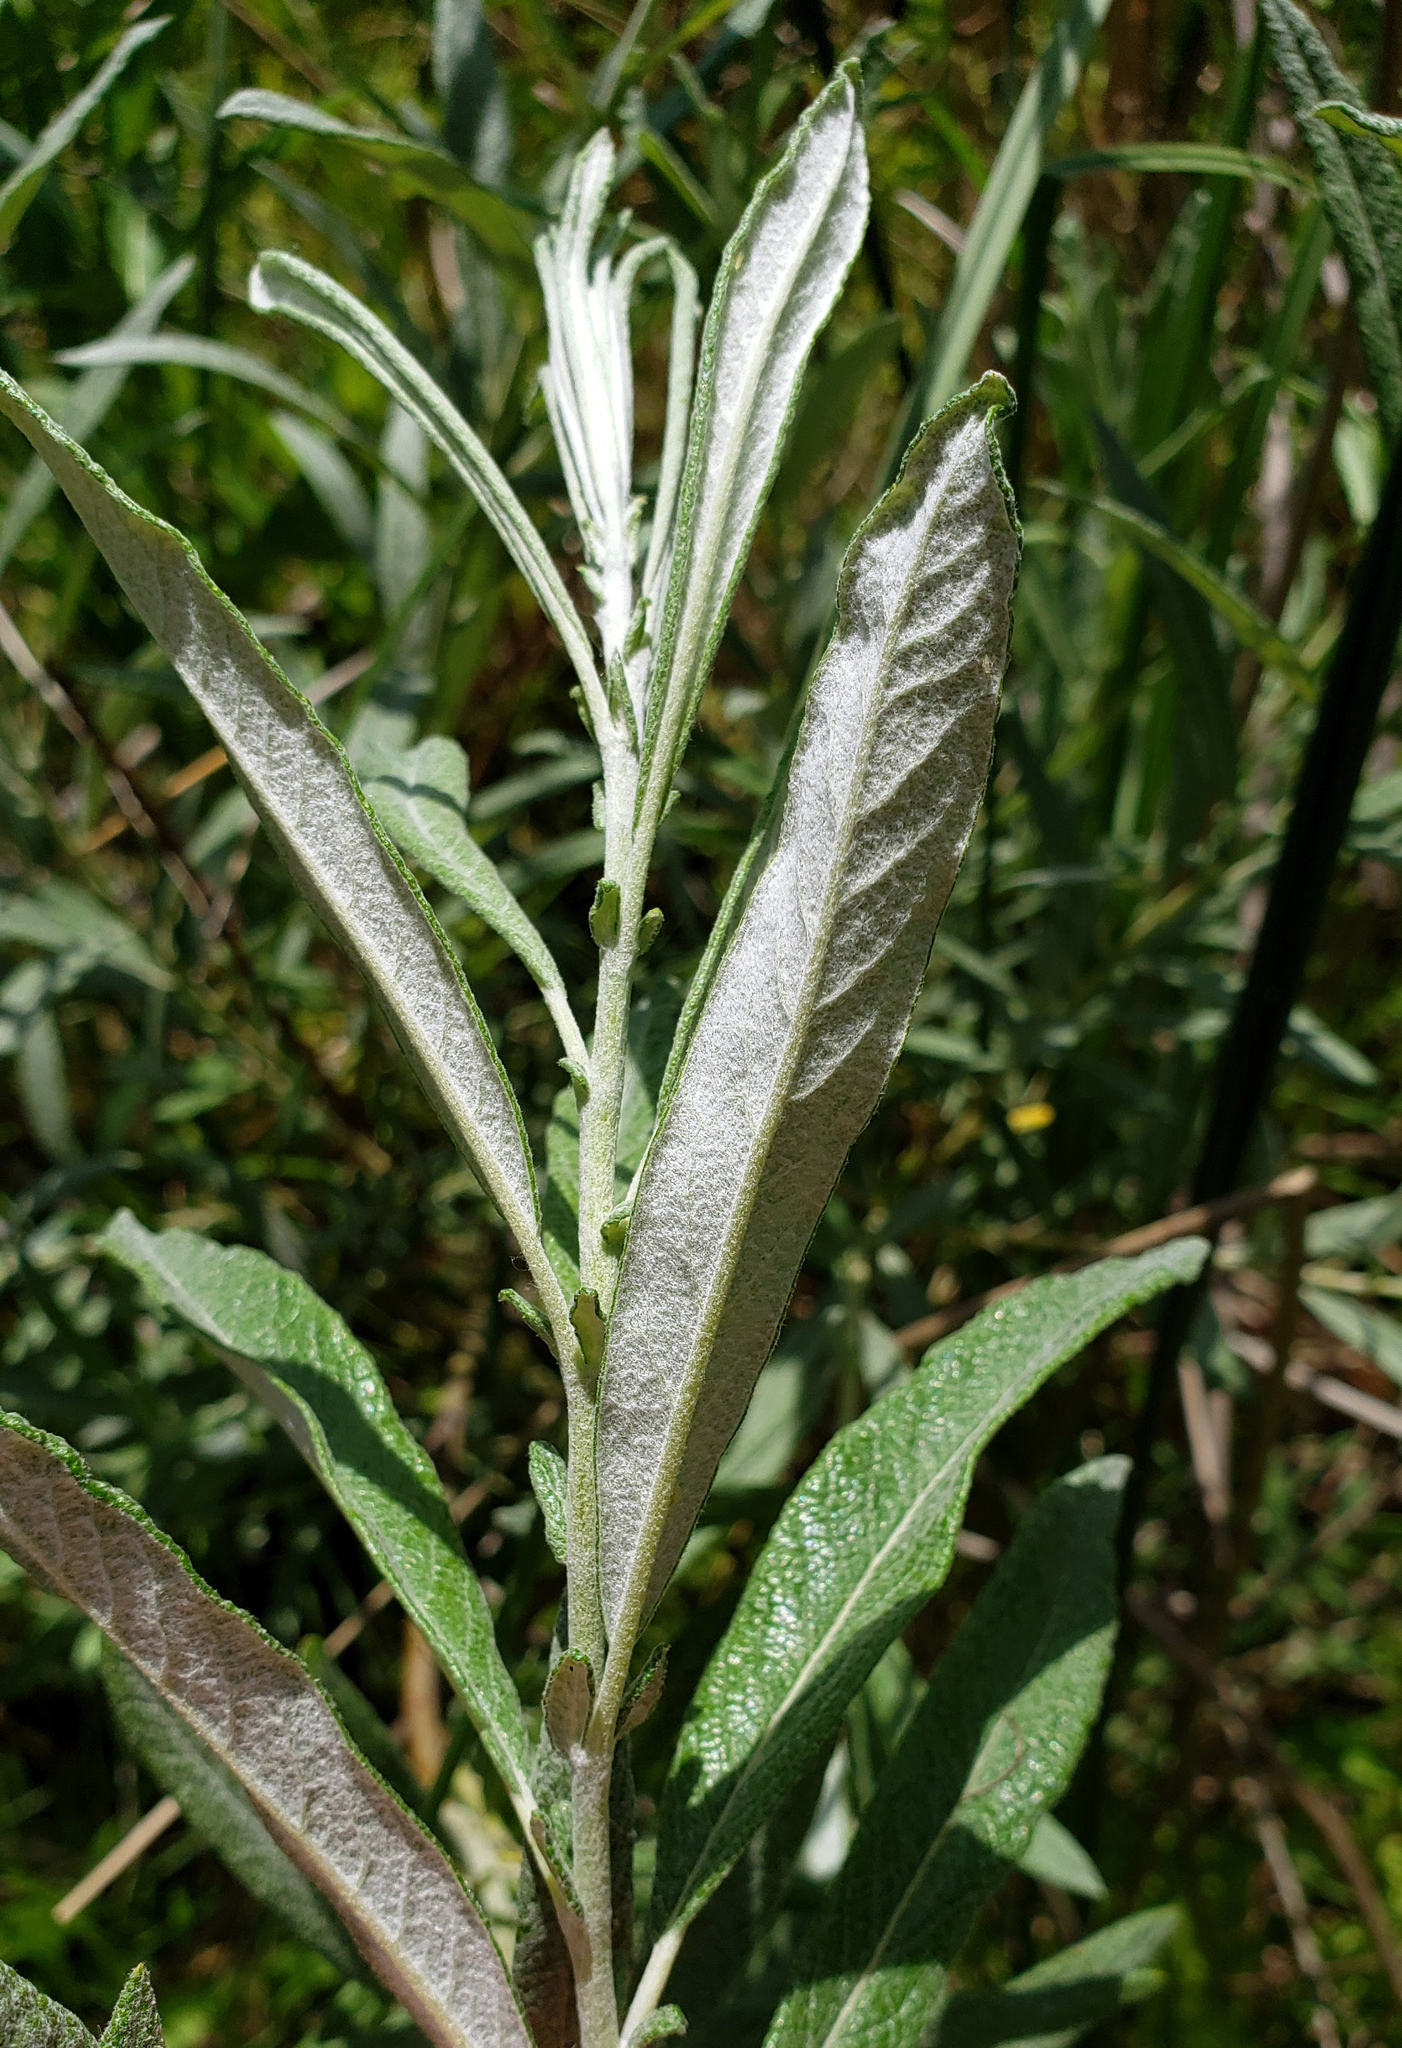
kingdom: Plantae
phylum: Tracheophyta
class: Magnoliopsida
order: Malpighiales
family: Salicaceae
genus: Salix
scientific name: Salix candida
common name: Hoary willow
